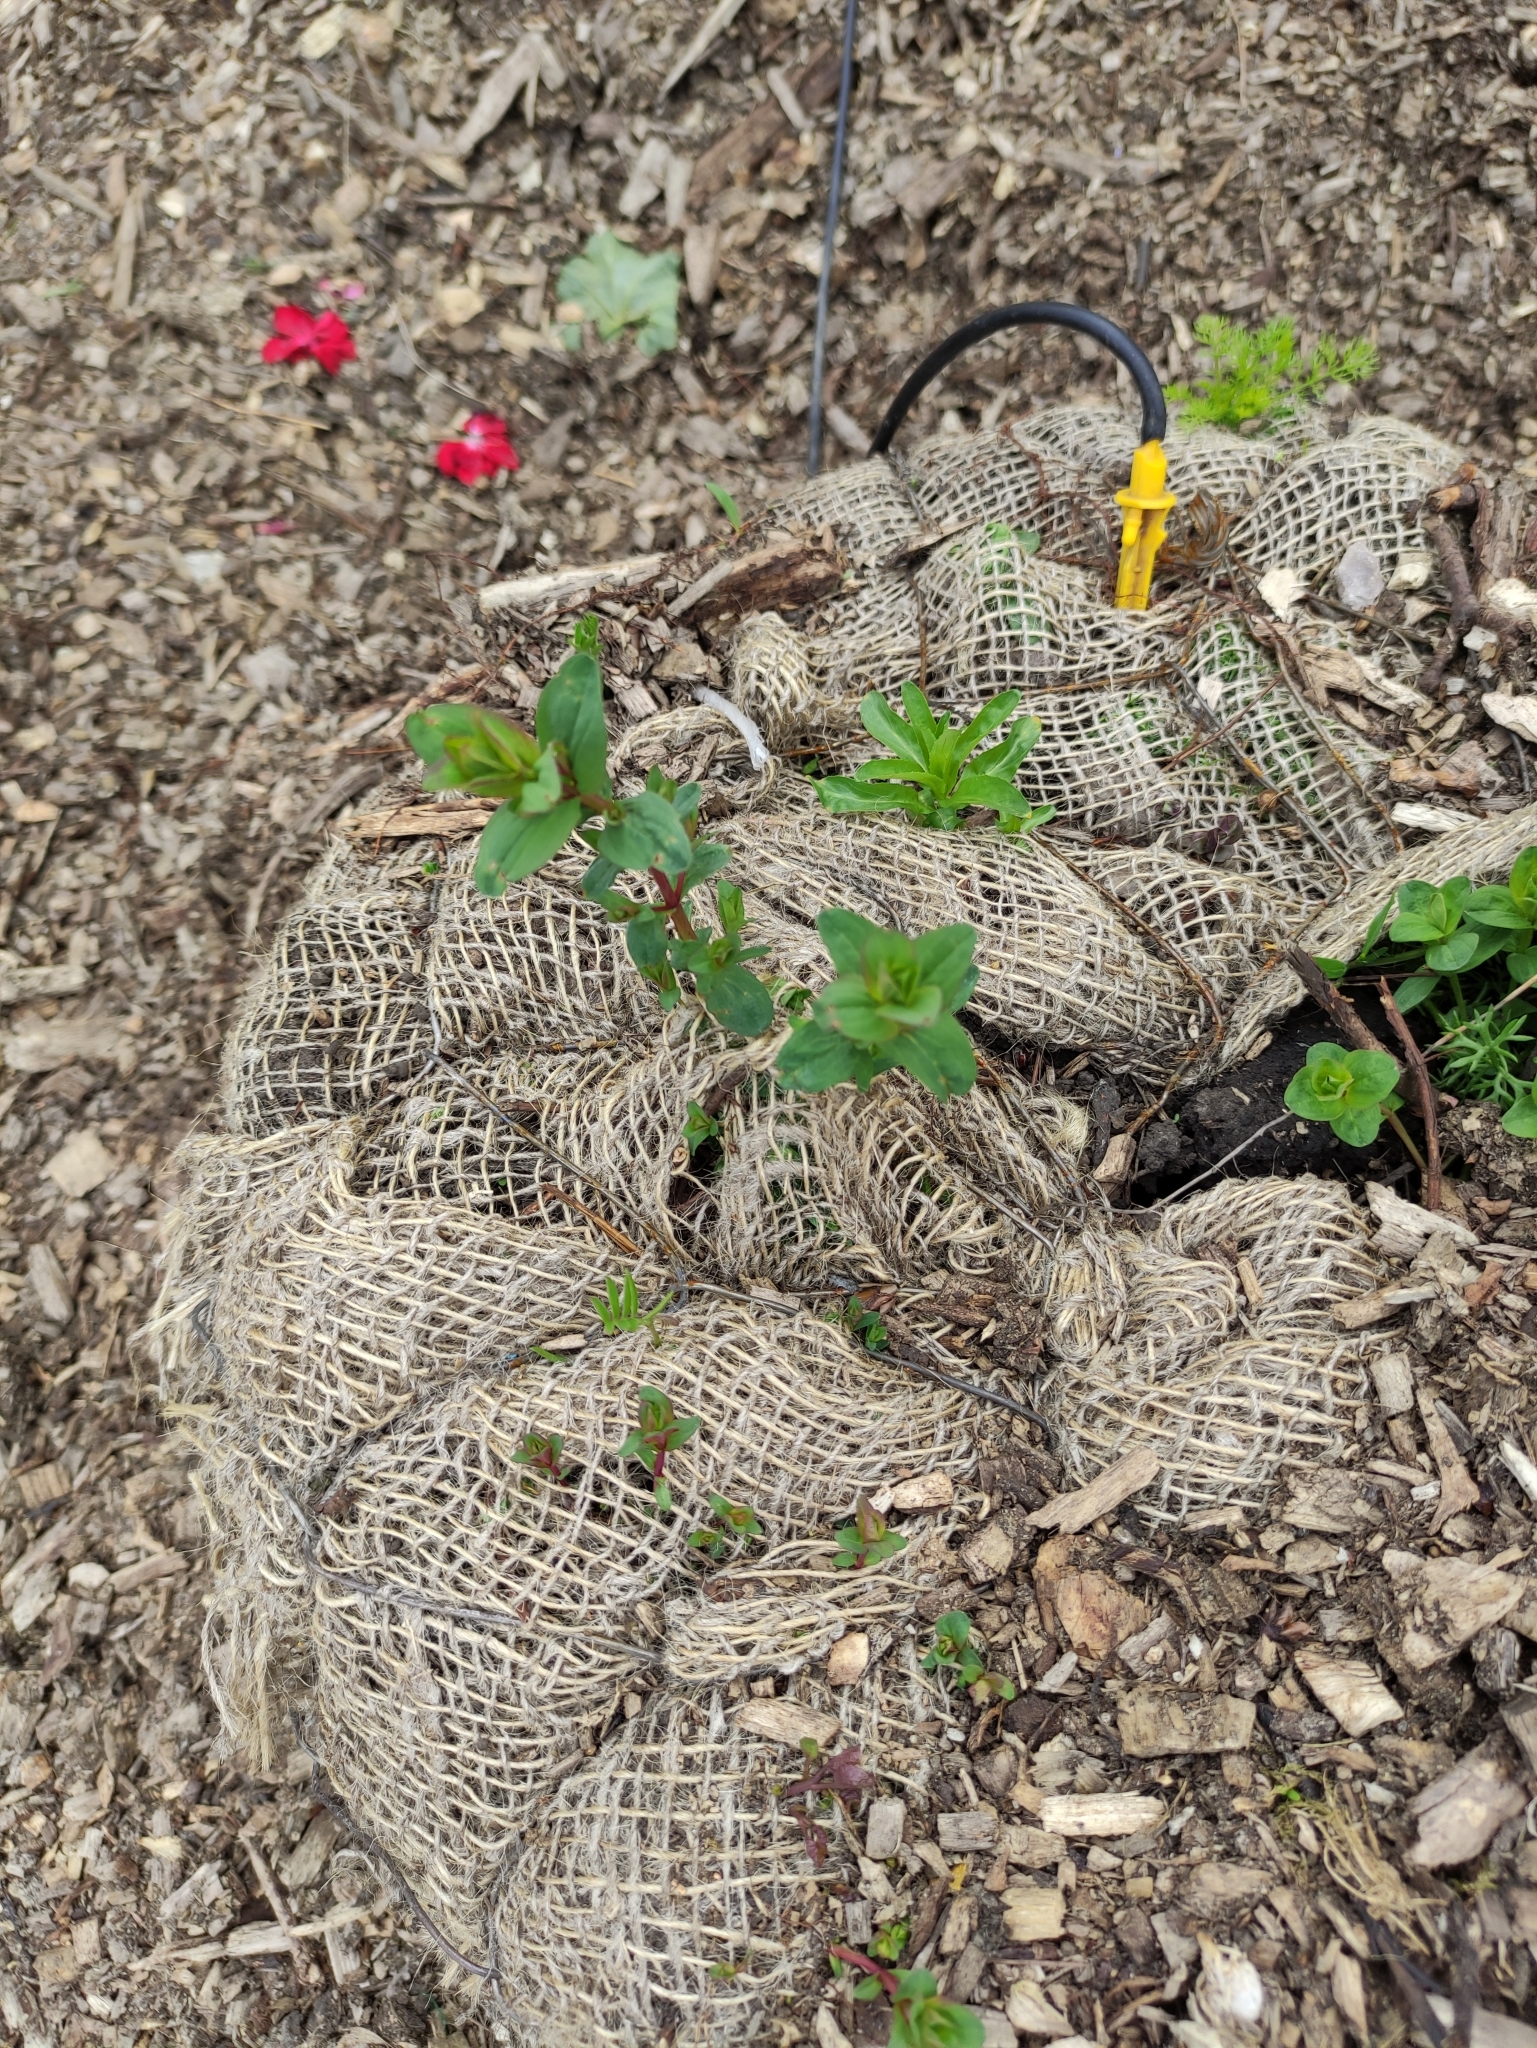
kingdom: Plantae
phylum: Tracheophyta
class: Magnoliopsida
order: Malpighiales
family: Hypericaceae
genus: Hypericum
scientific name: Hypericum perforatum
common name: Common st. johnswort
